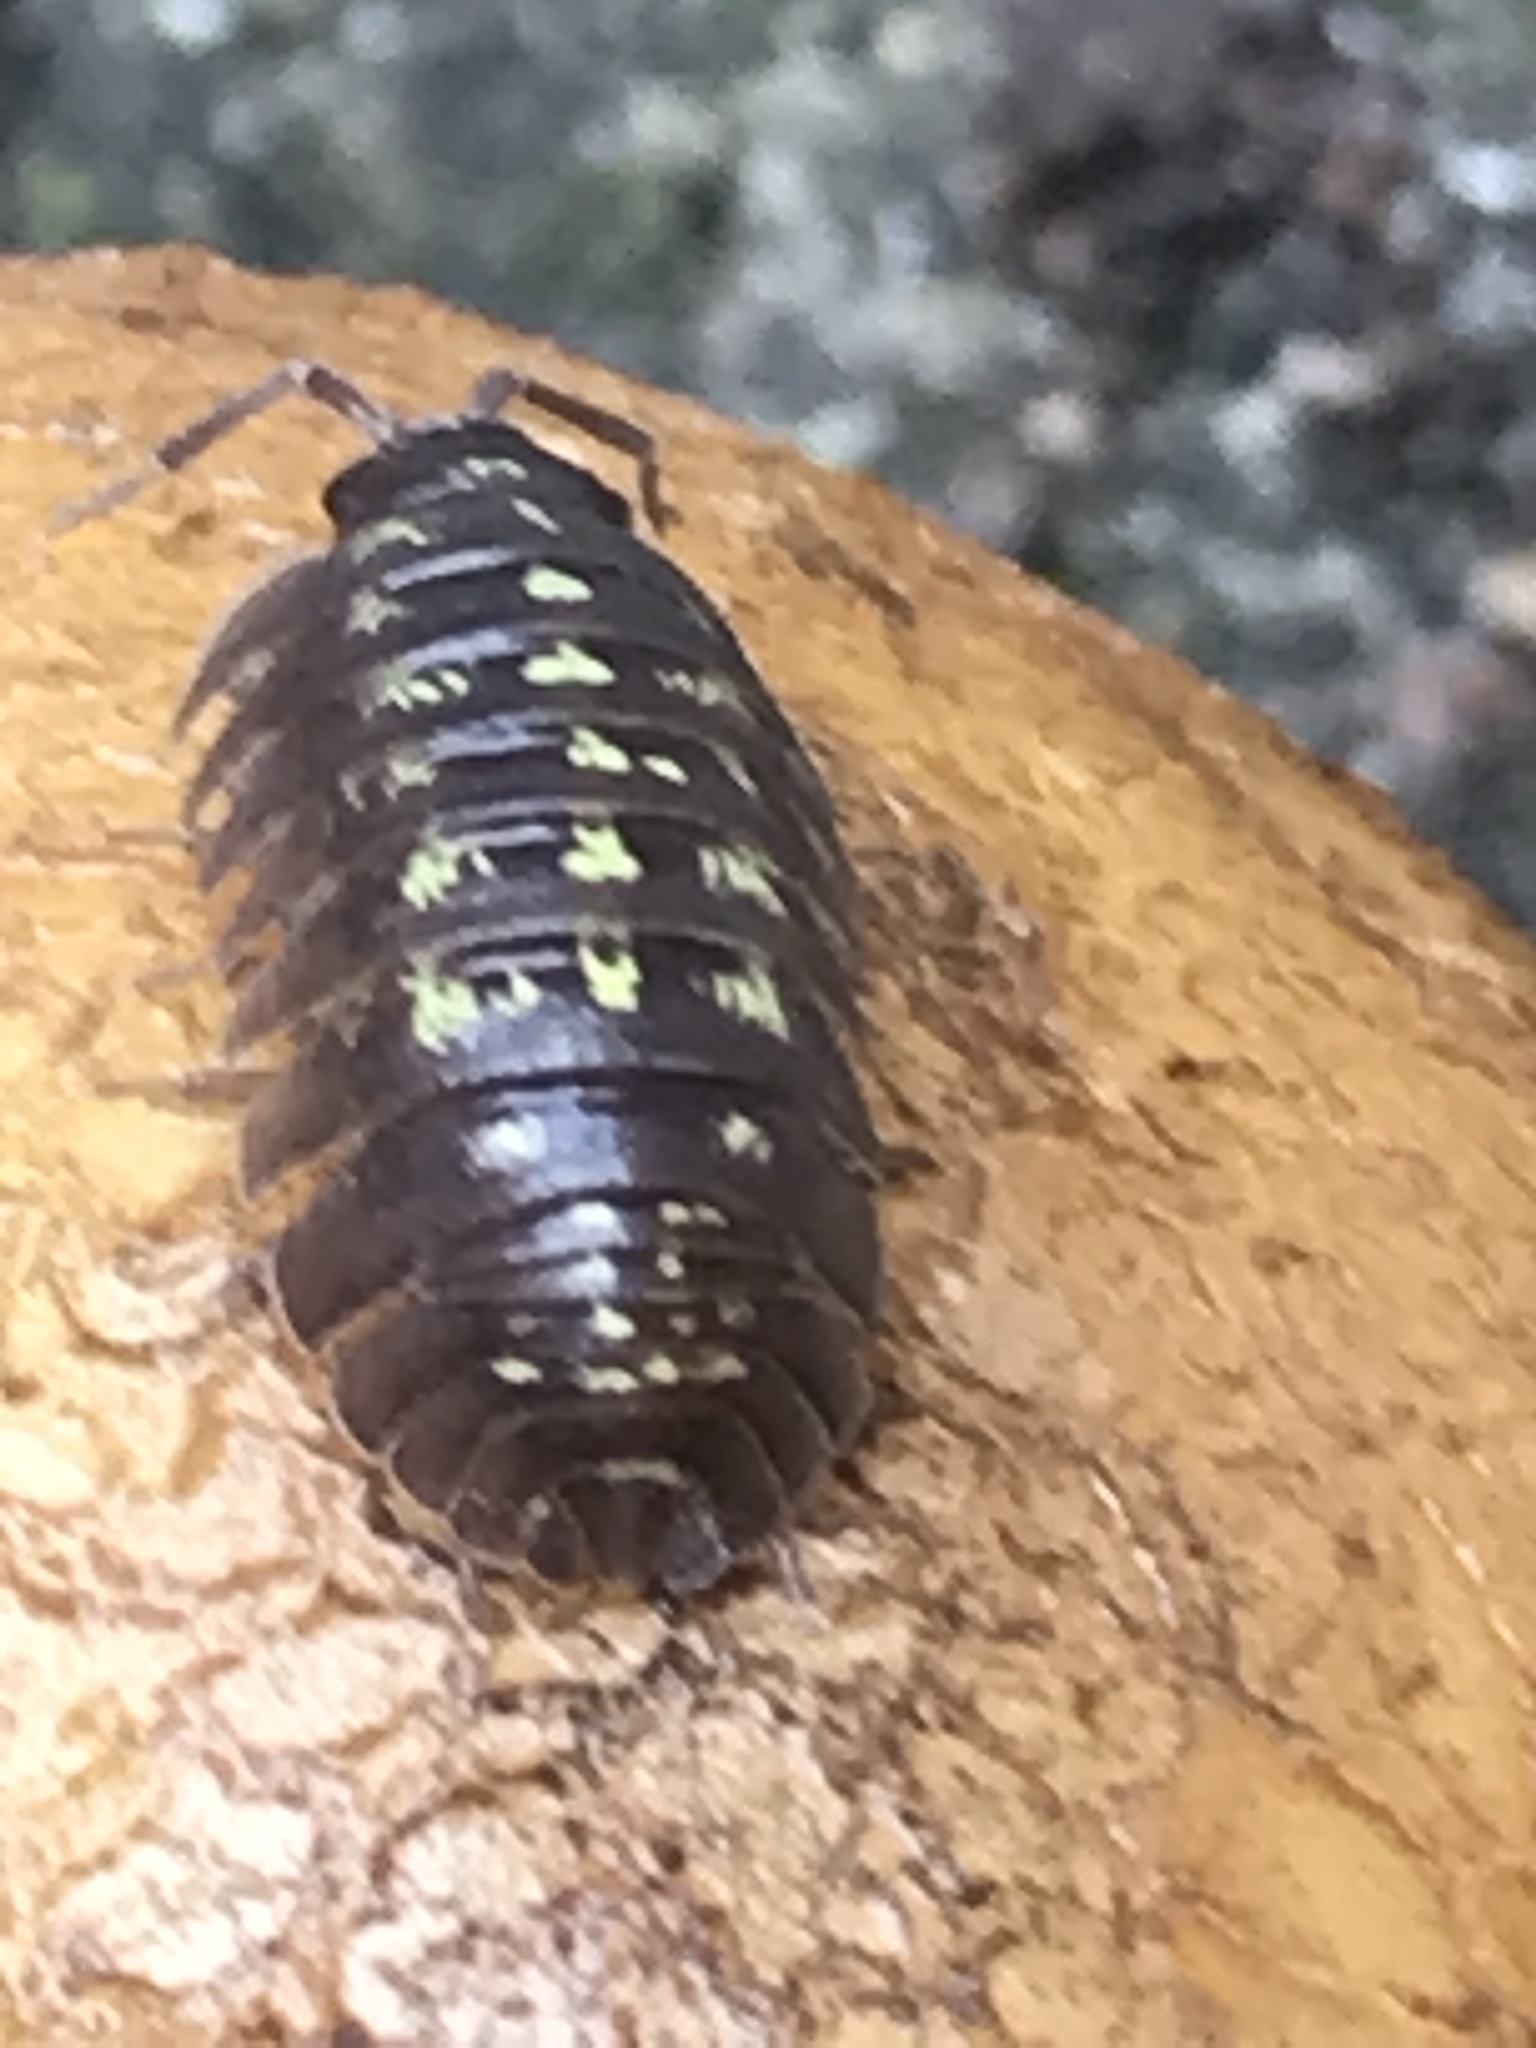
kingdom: Animalia
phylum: Arthropoda
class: Malacostraca
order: Isopoda
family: Armadillidiidae
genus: Armadillidium
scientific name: Armadillidium depressum
